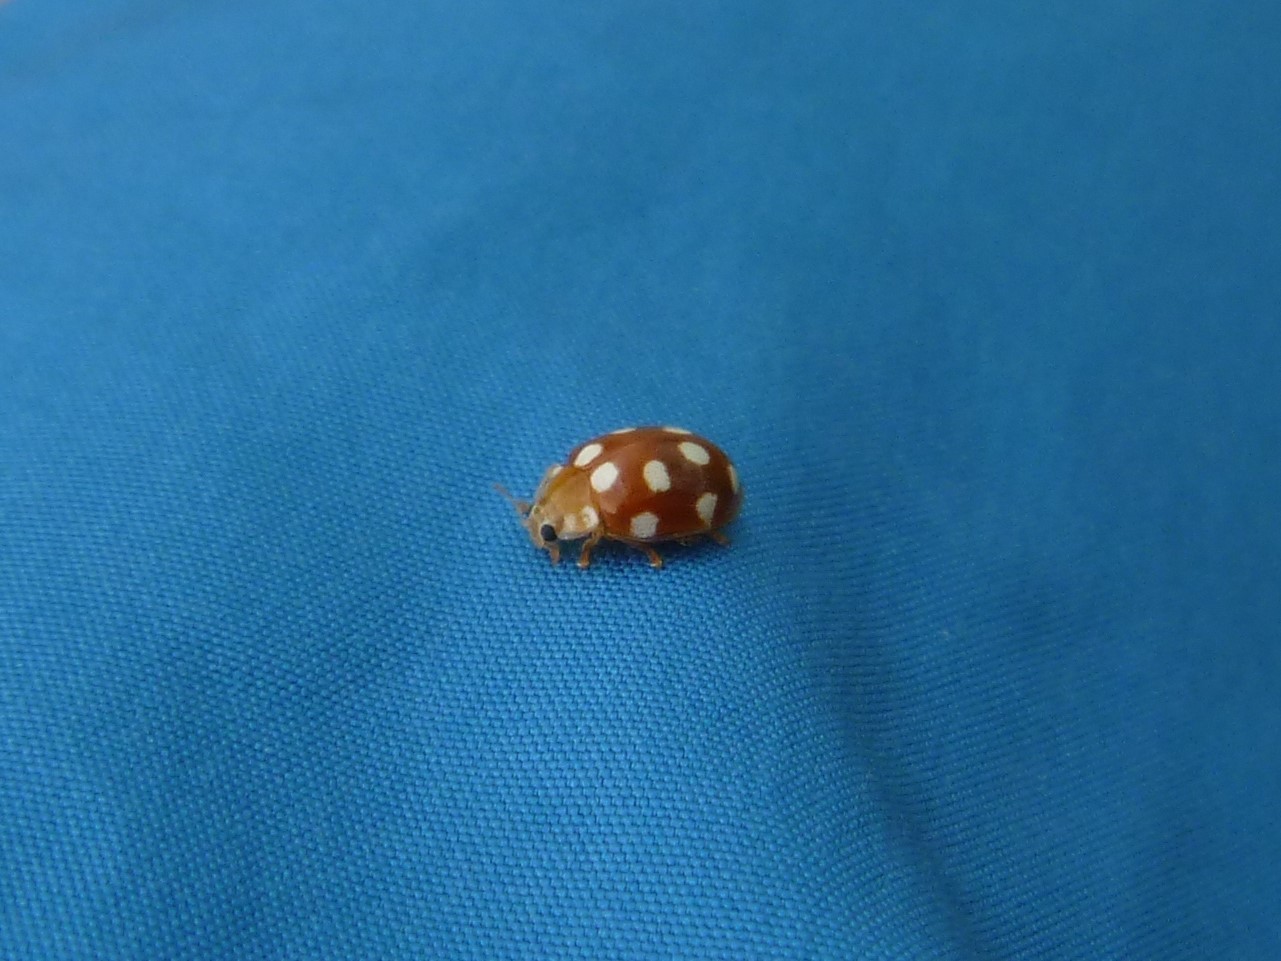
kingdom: Animalia
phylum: Arthropoda
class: Insecta
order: Coleoptera
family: Coccinellidae
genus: Vibidia
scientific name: Vibidia duodecimguttata
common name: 12-spot ladybird
